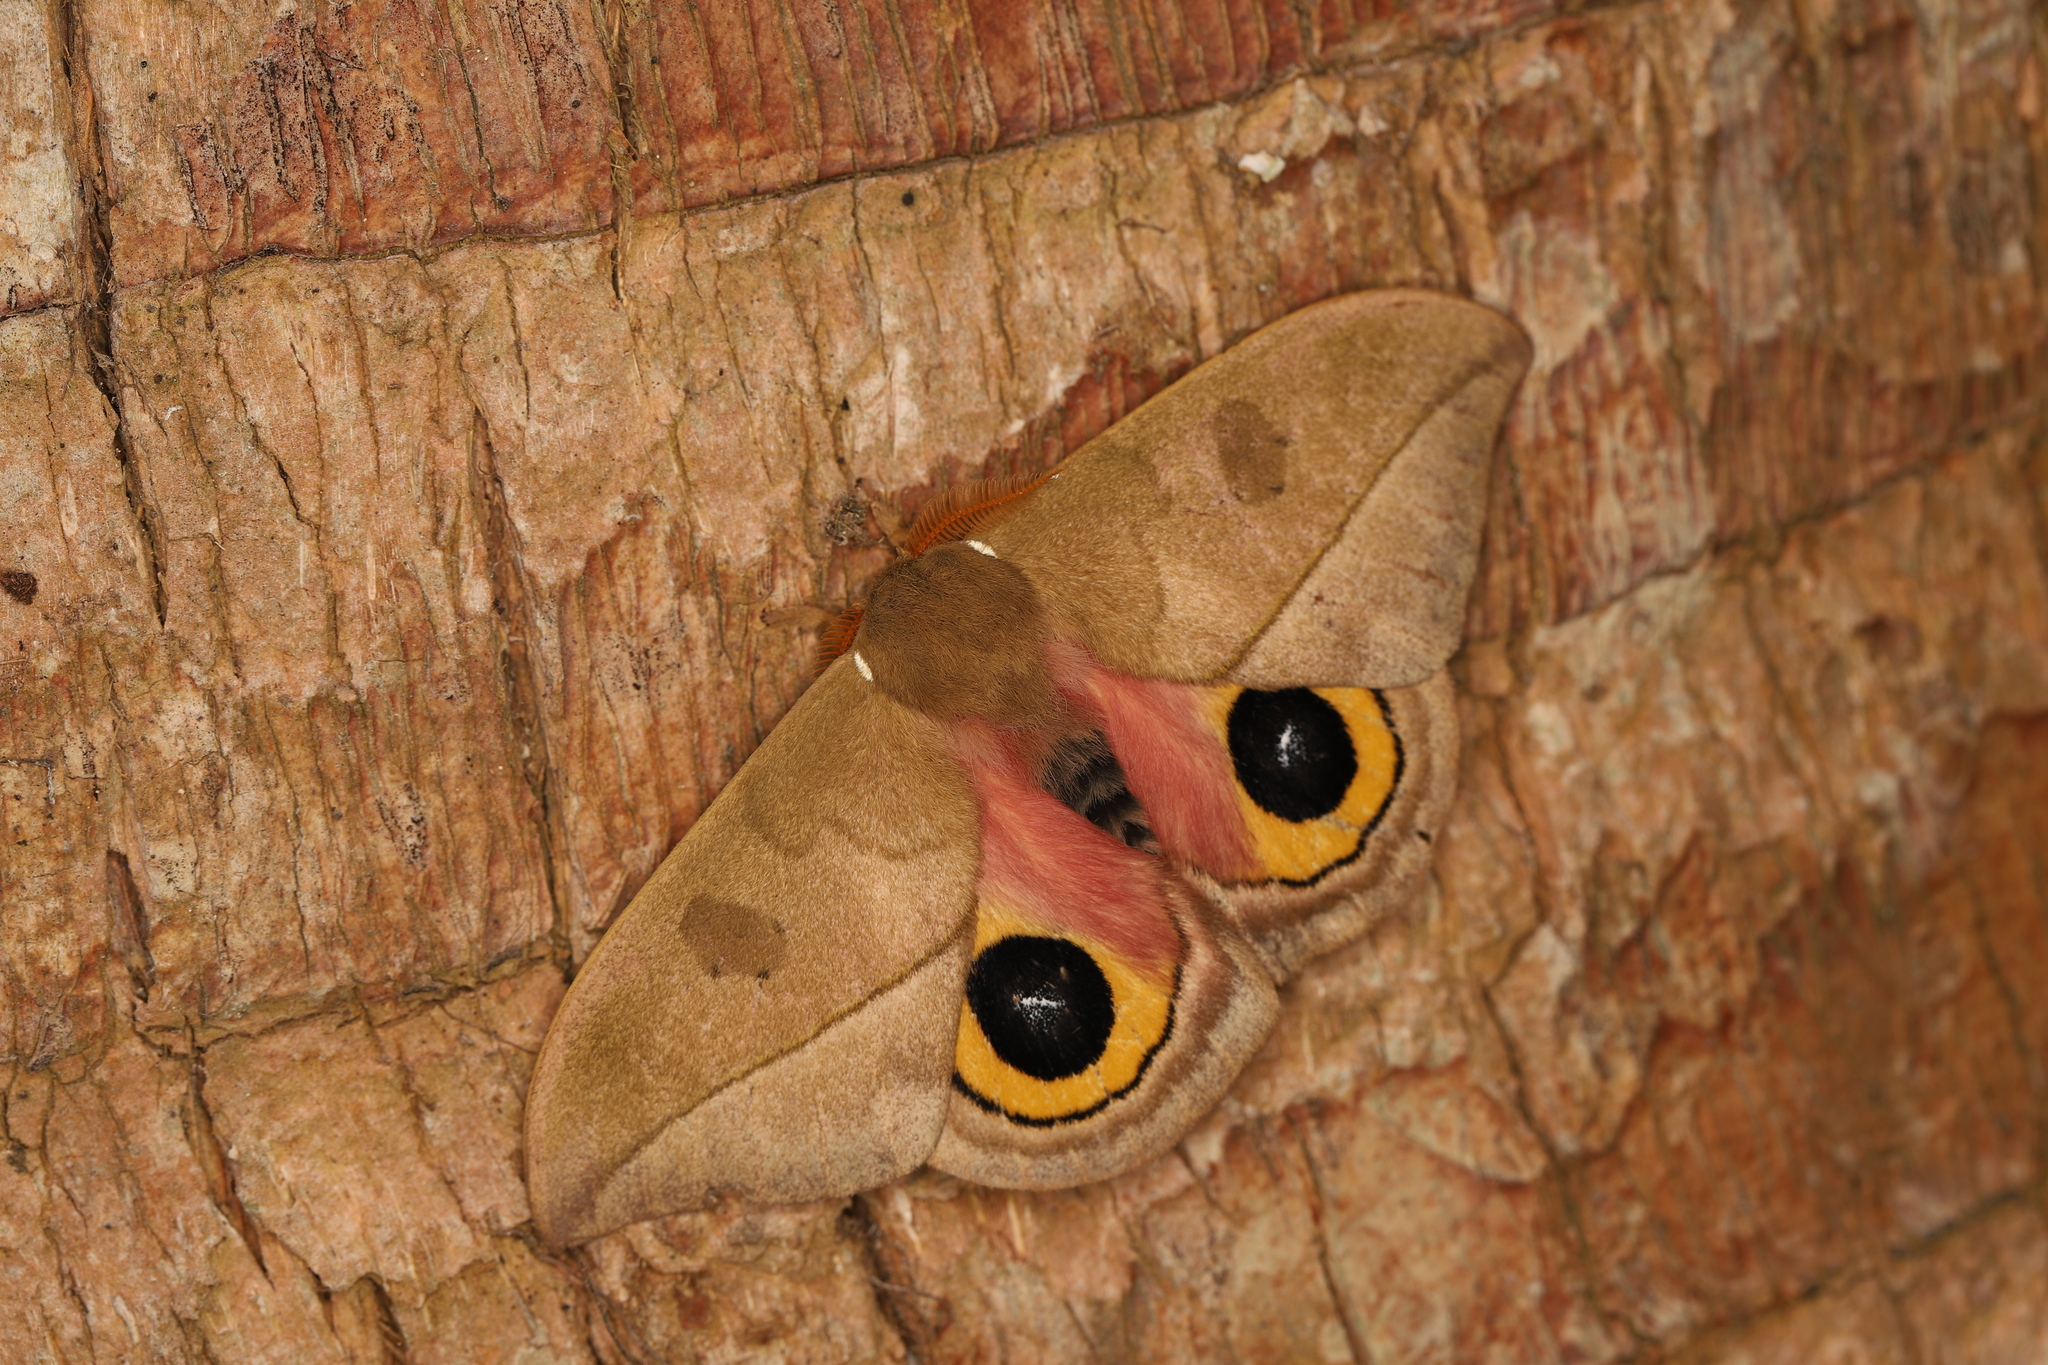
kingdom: Animalia
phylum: Arthropoda
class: Insecta
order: Lepidoptera
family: Saturniidae
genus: Automeris
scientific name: Automeris zugana
